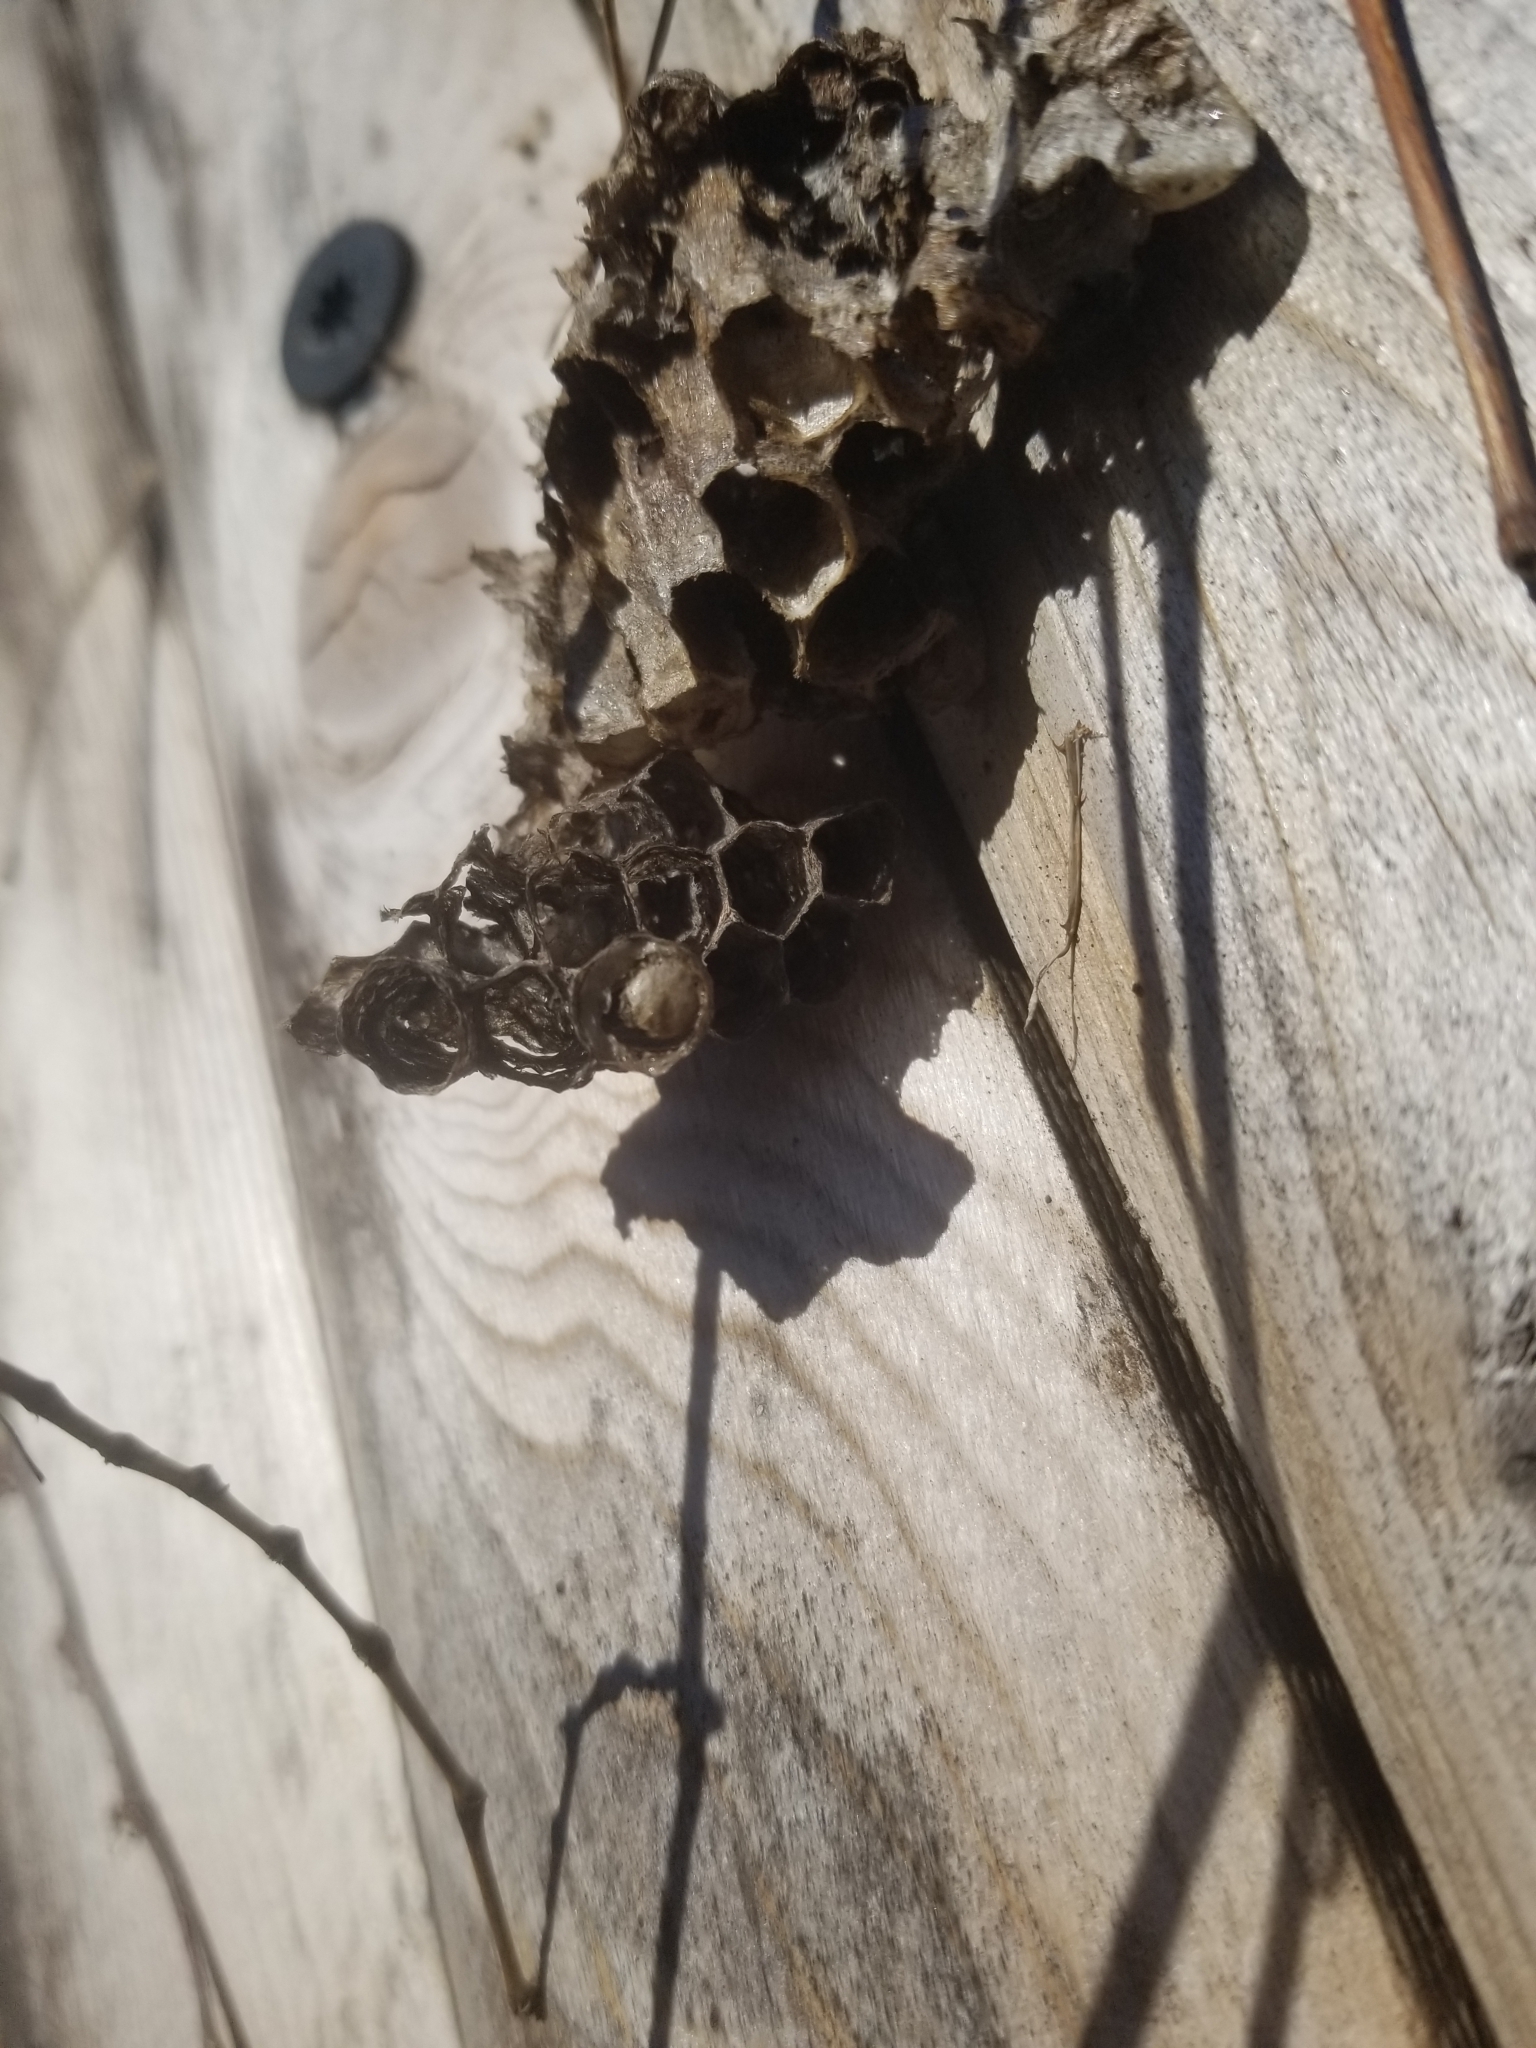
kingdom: Animalia
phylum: Arthropoda
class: Insecta
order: Hymenoptera
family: Eumenidae
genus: Polistes
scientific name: Polistes
